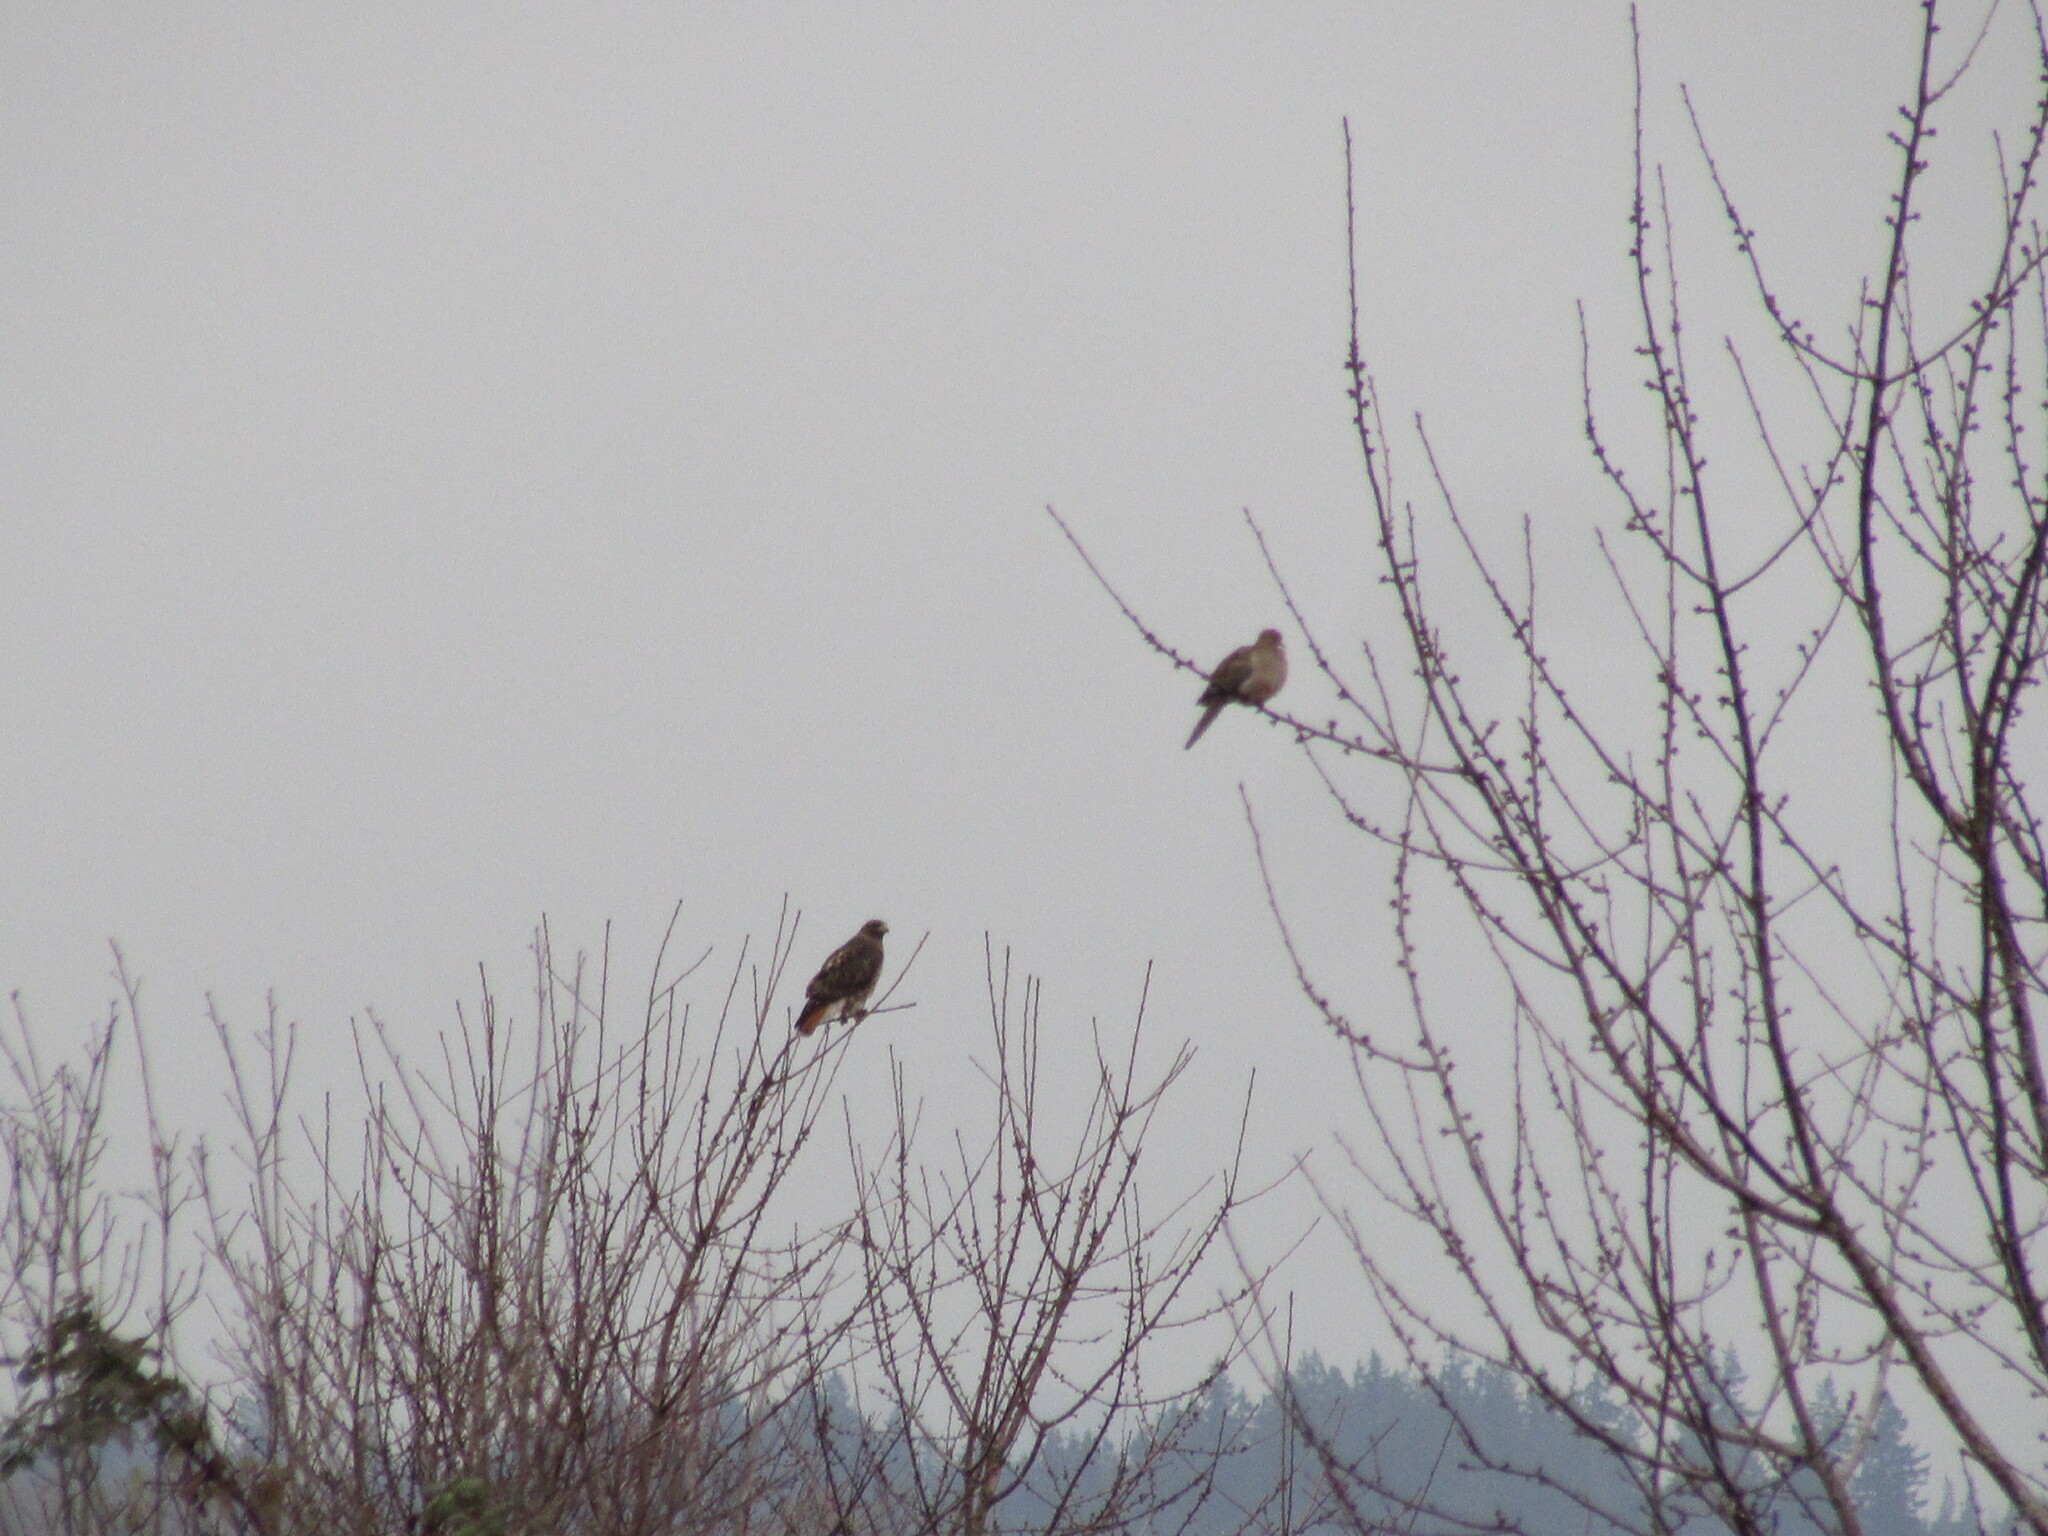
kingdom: Animalia
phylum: Chordata
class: Aves
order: Accipitriformes
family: Accipitridae
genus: Buteo
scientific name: Buteo jamaicensis
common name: Red-tailed hawk
